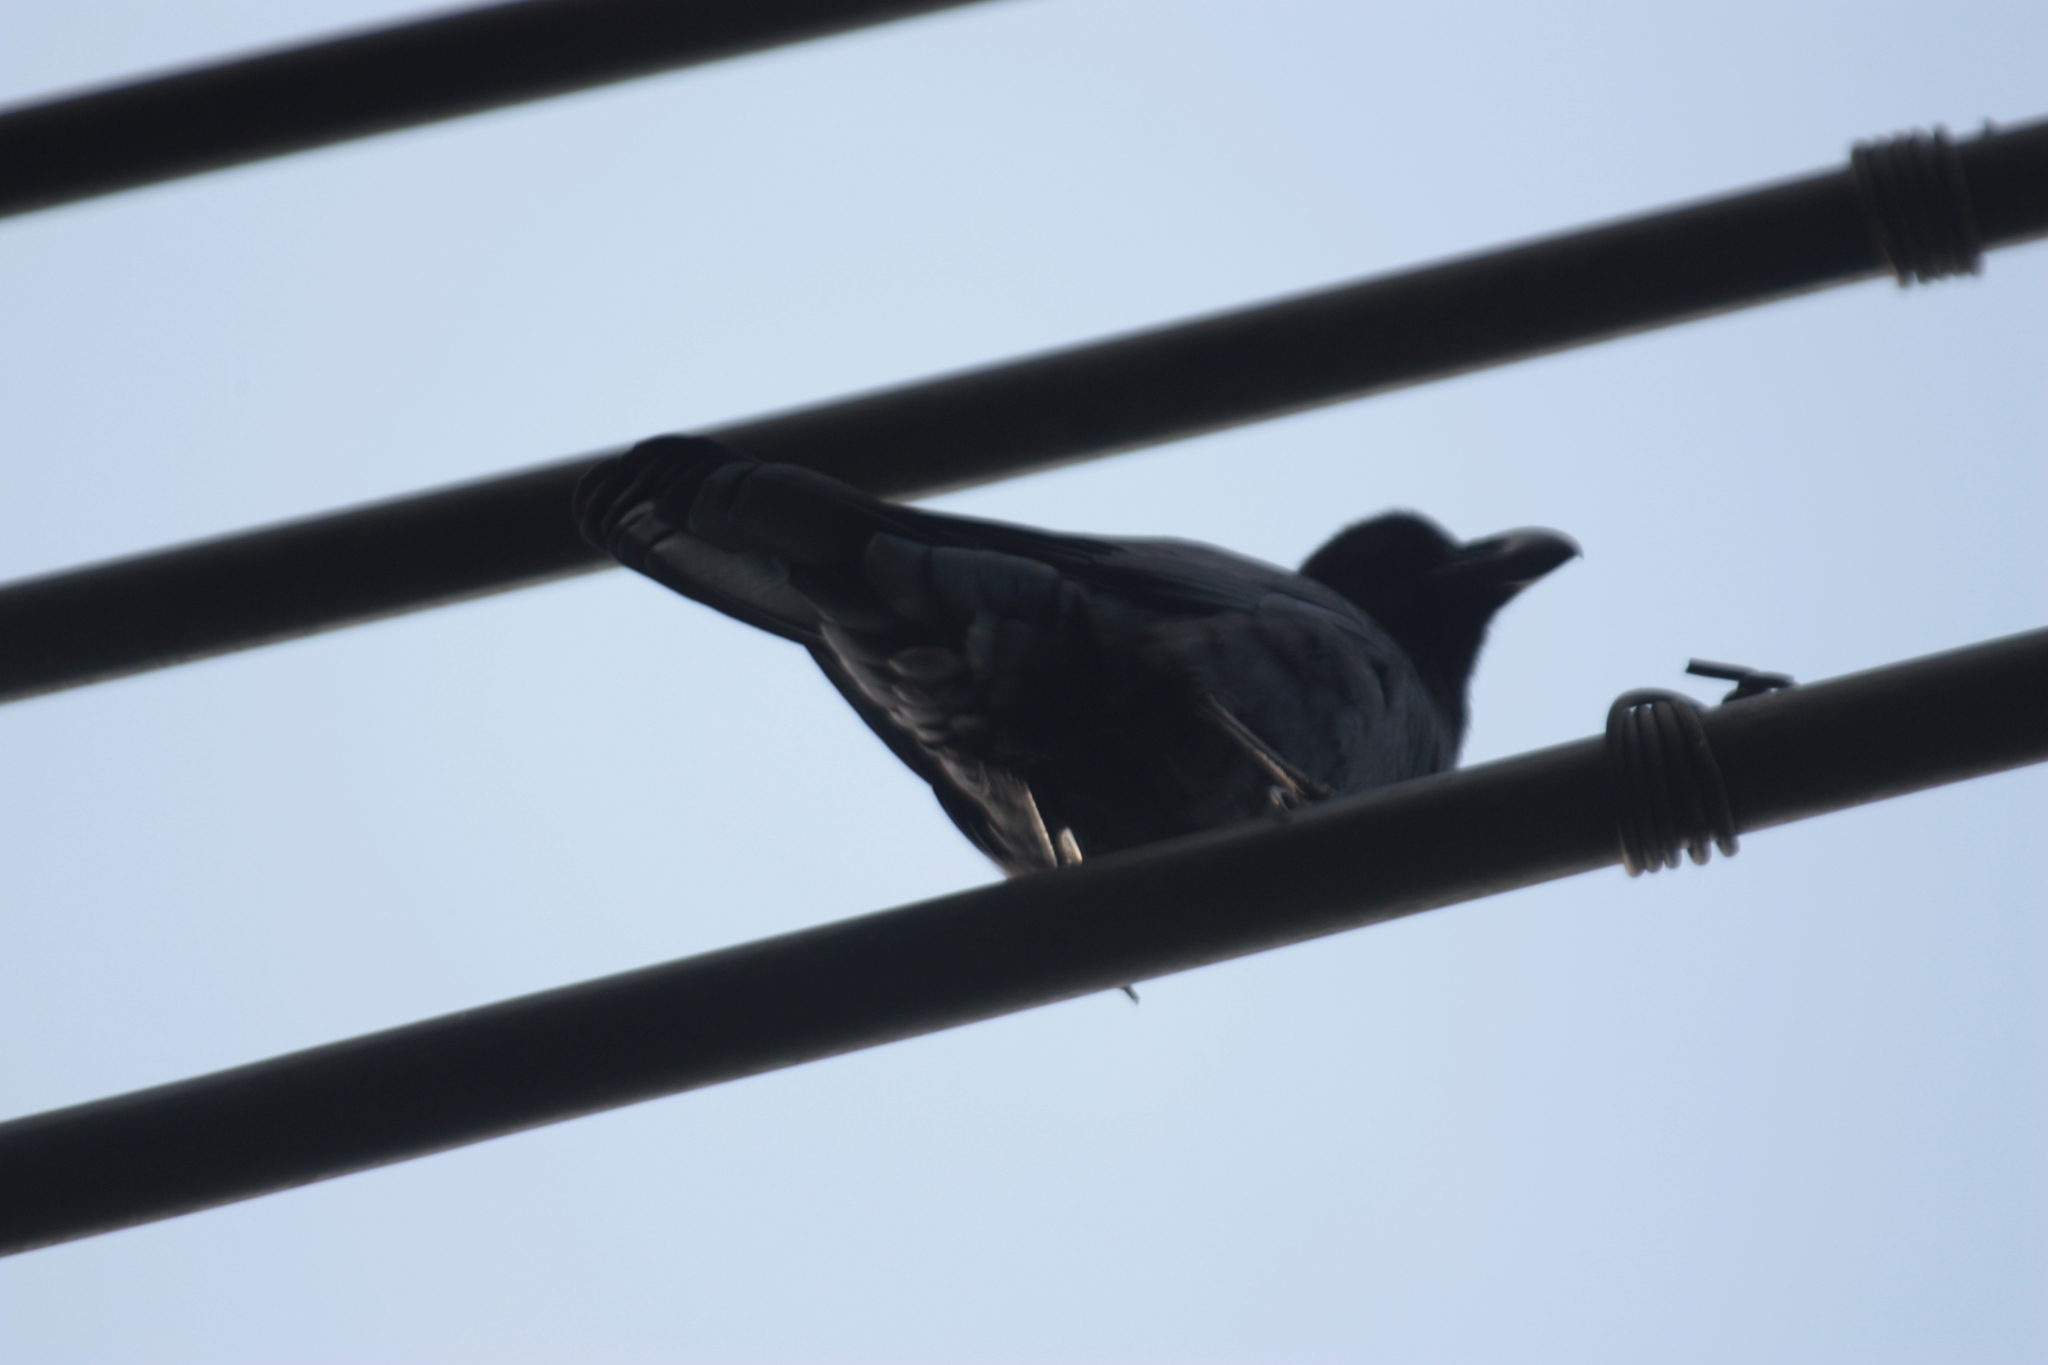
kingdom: Animalia
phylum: Chordata
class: Aves
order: Passeriformes
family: Corvidae
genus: Corvus
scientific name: Corvus macrorhynchos
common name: Large-billed crow
